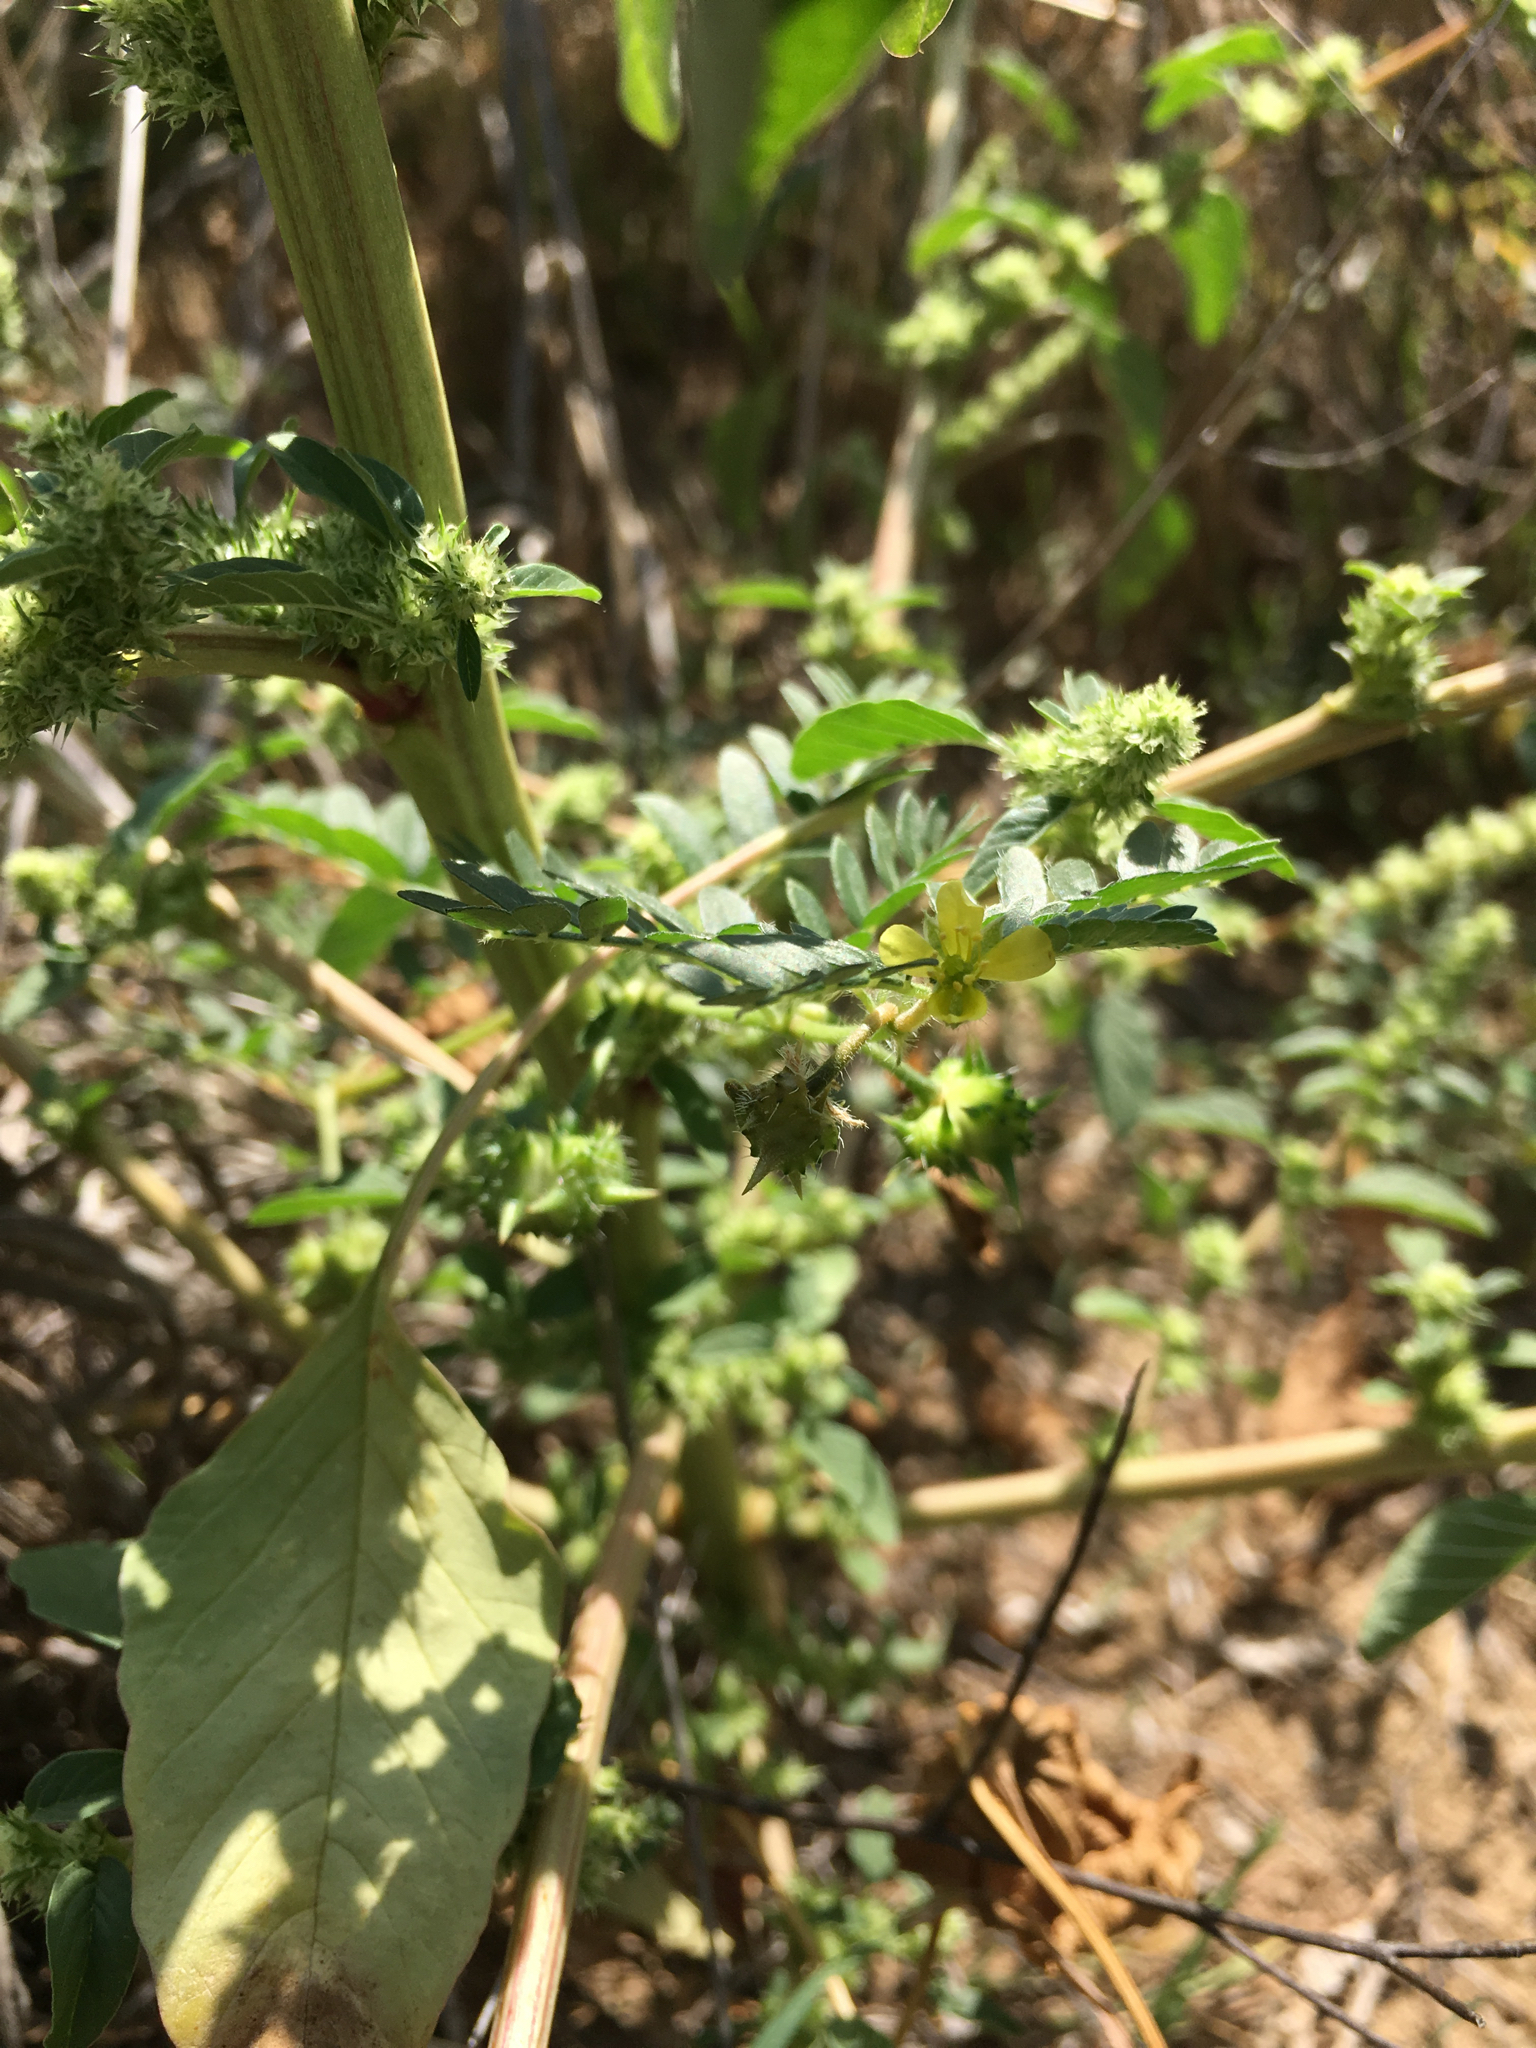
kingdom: Plantae
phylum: Tracheophyta
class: Magnoliopsida
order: Zygophyllales
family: Zygophyllaceae
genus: Tribulus
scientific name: Tribulus terrestris
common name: Puncturevine
